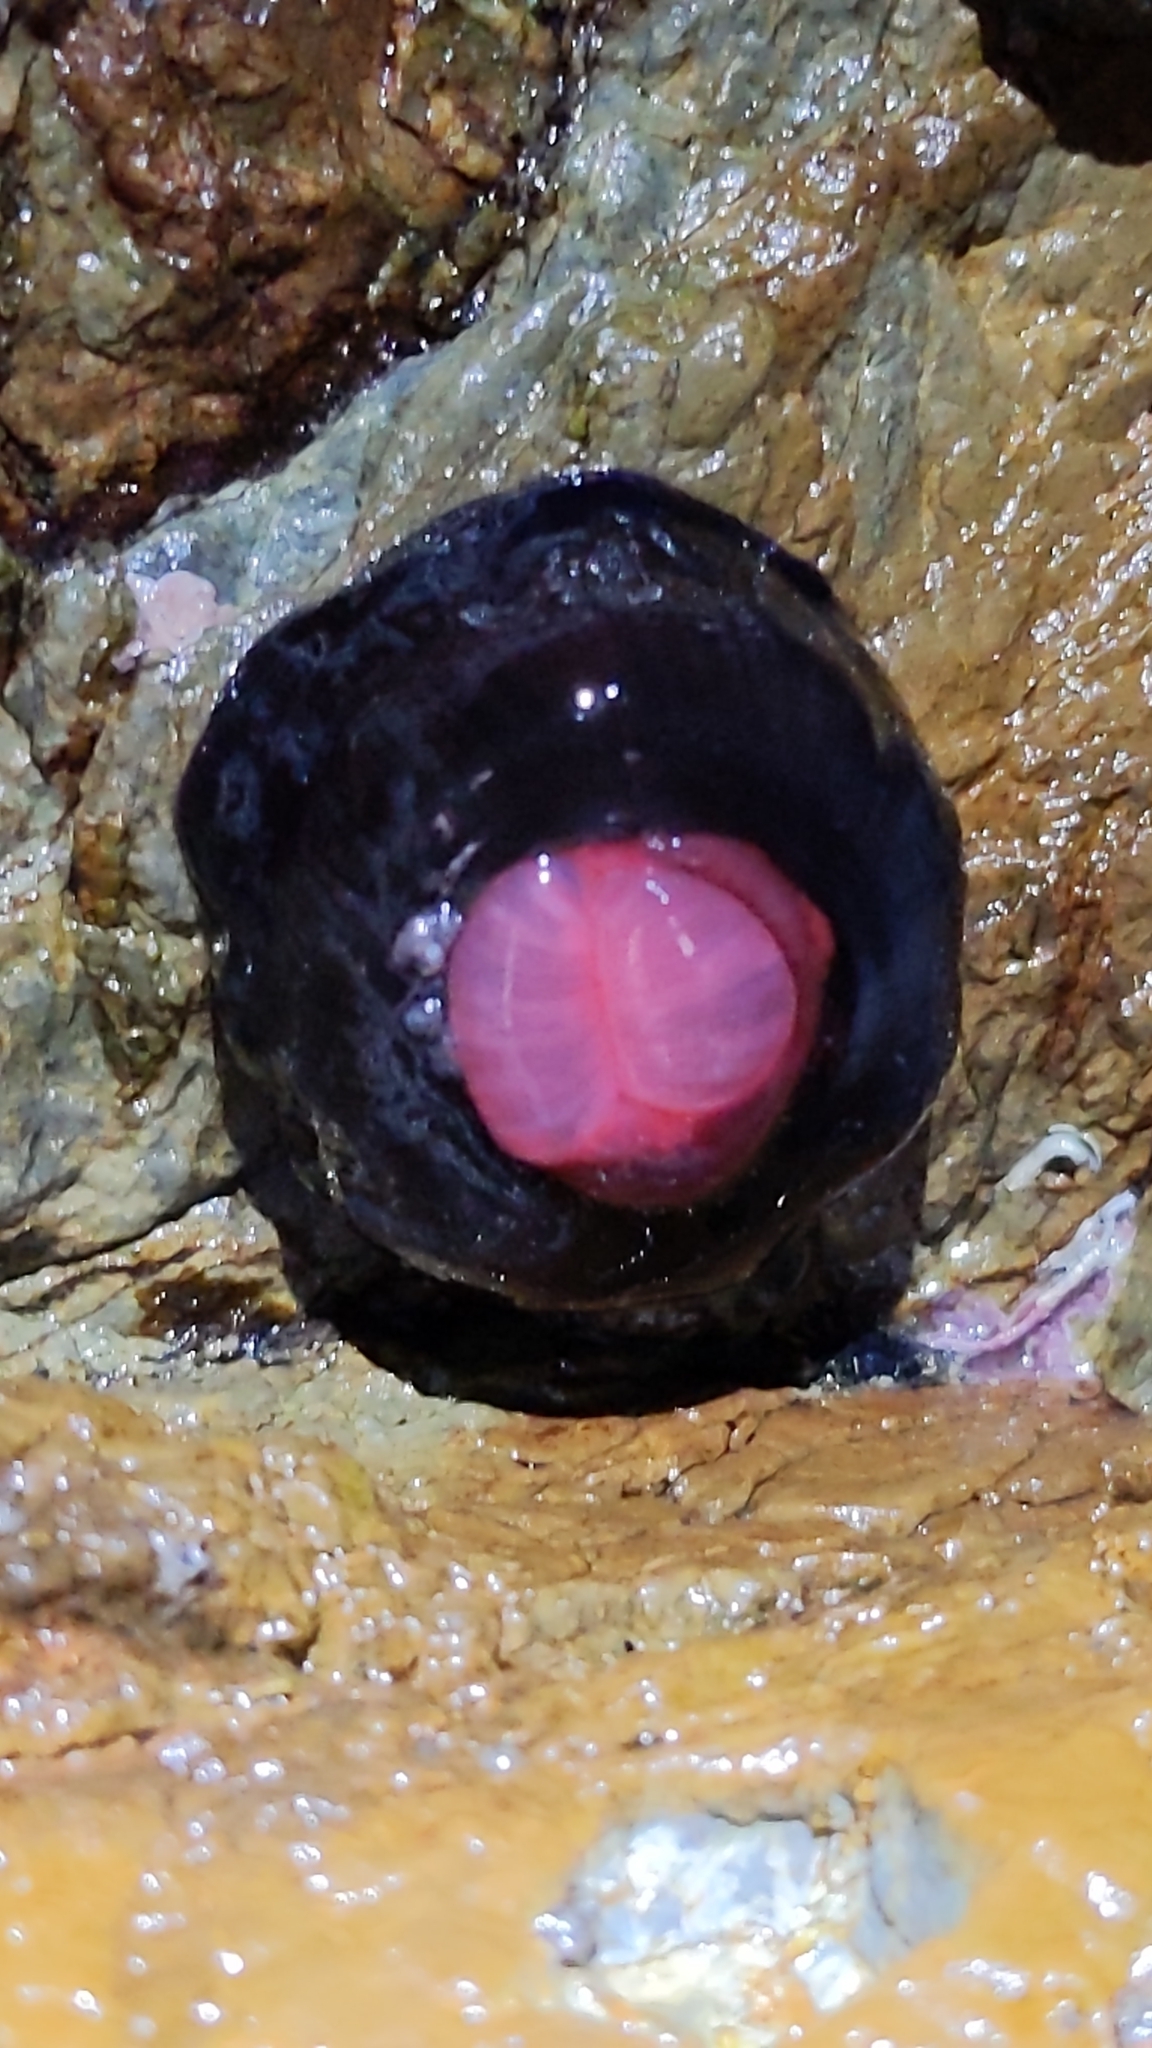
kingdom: Animalia
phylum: Cnidaria
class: Anthozoa
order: Actiniaria
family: Actiniidae
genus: Actinia
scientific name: Actinia tenebrosa
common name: Waratah anemone
